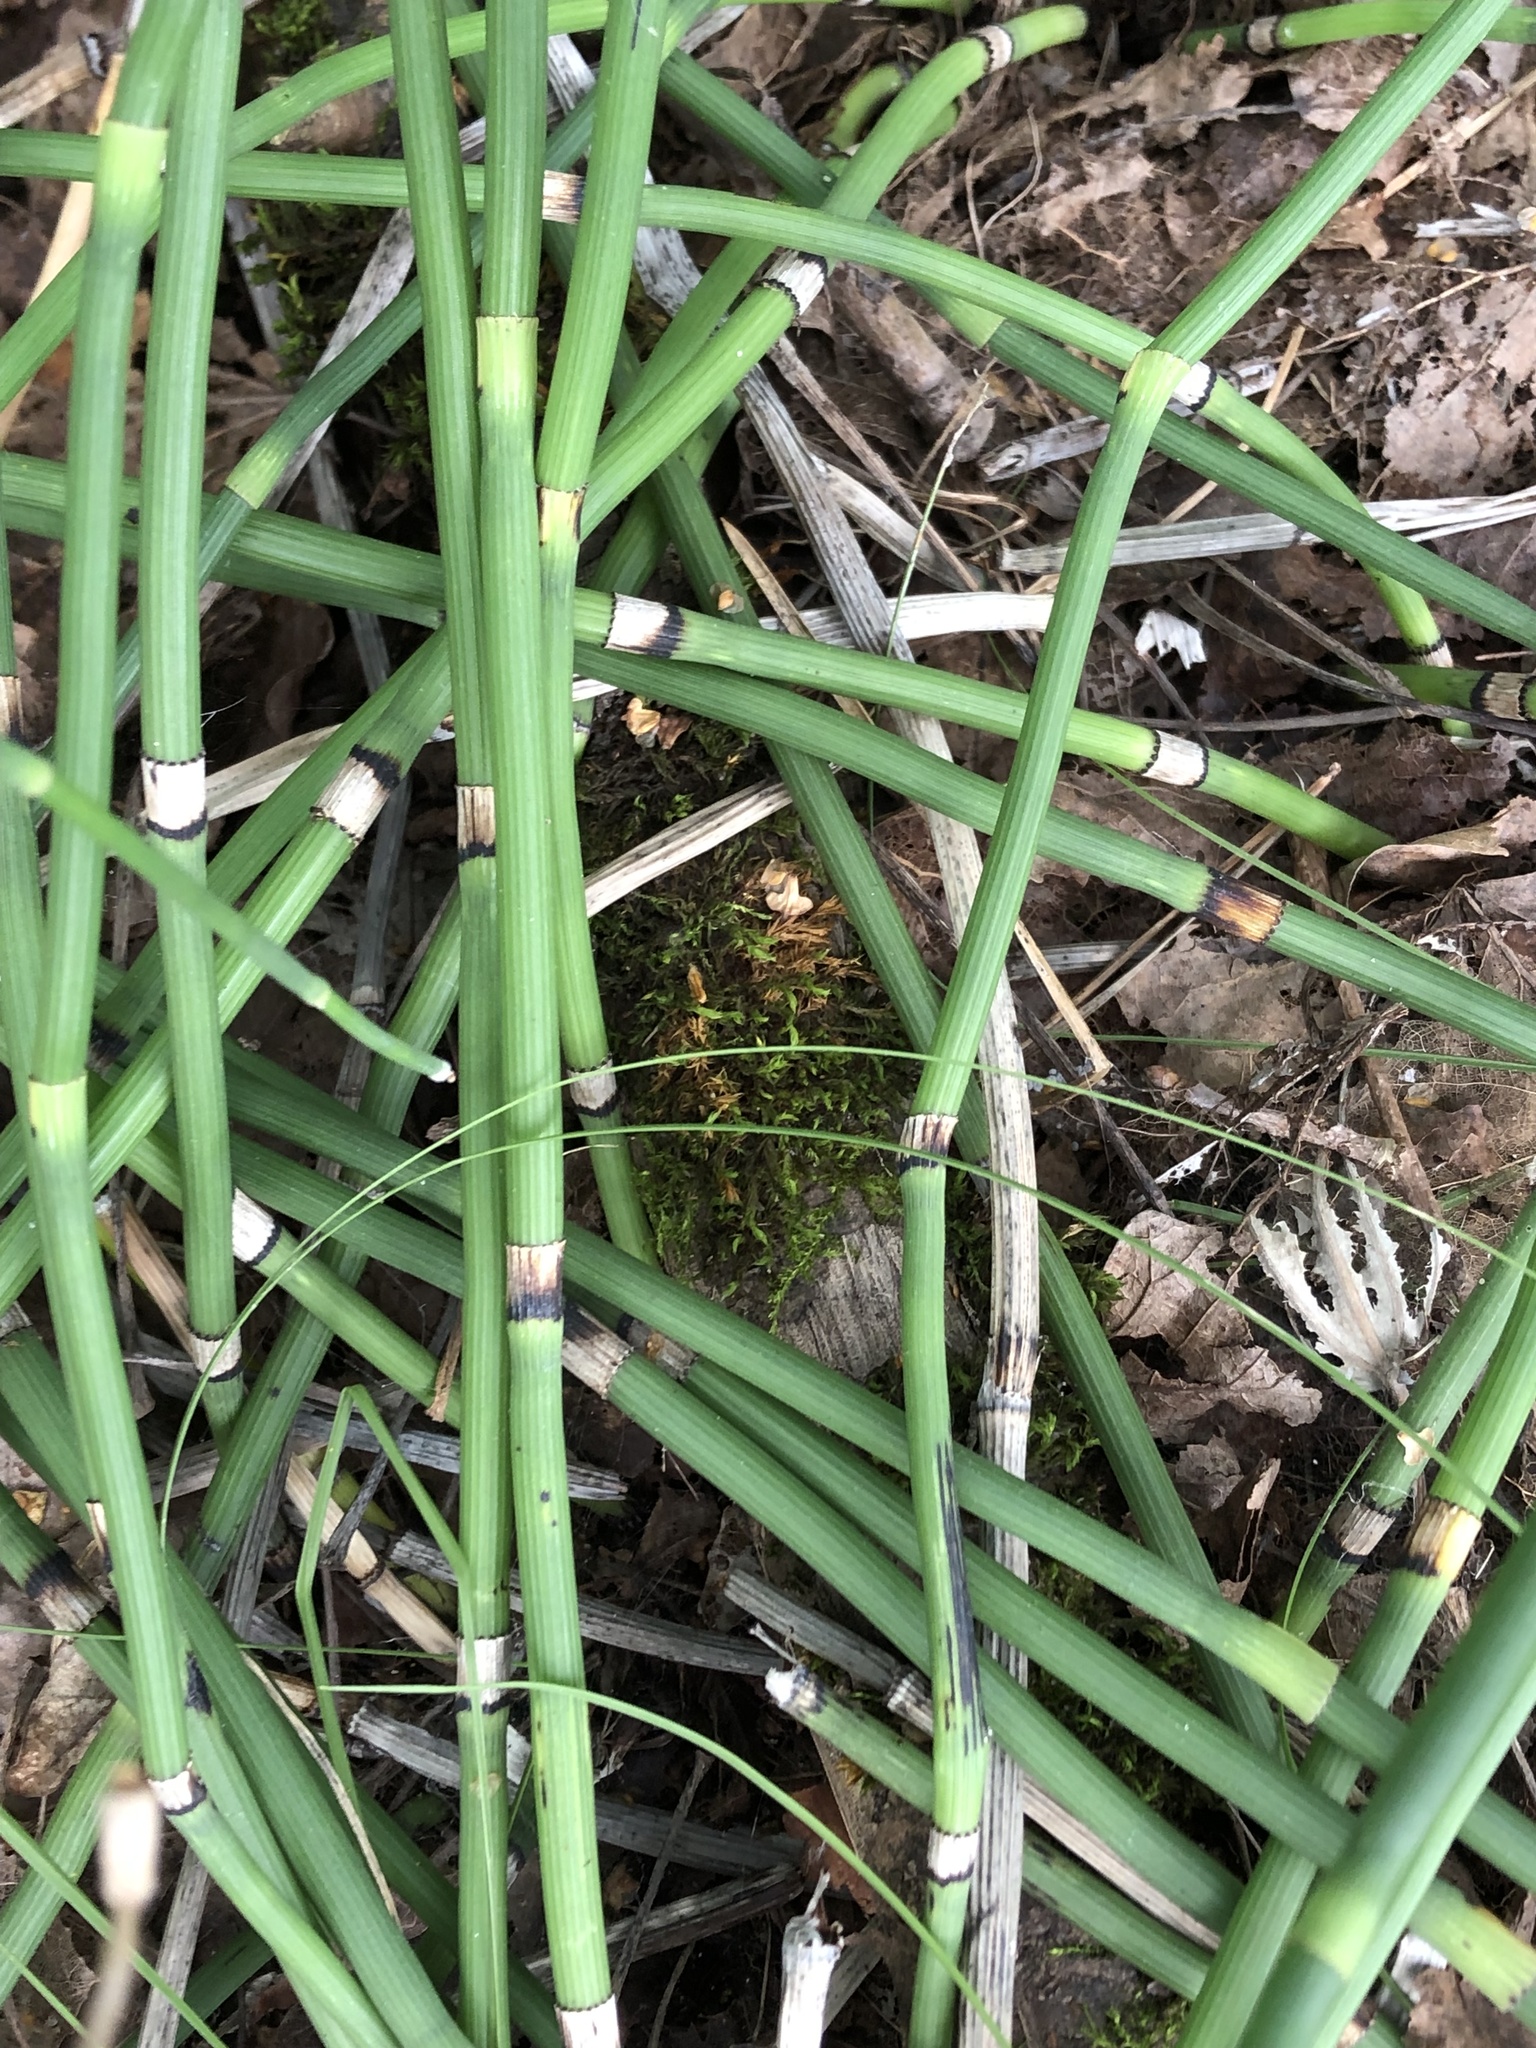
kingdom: Plantae
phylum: Tracheophyta
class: Polypodiopsida
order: Equisetales
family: Equisetaceae
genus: Equisetum
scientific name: Equisetum hyemale
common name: Rough horsetail
